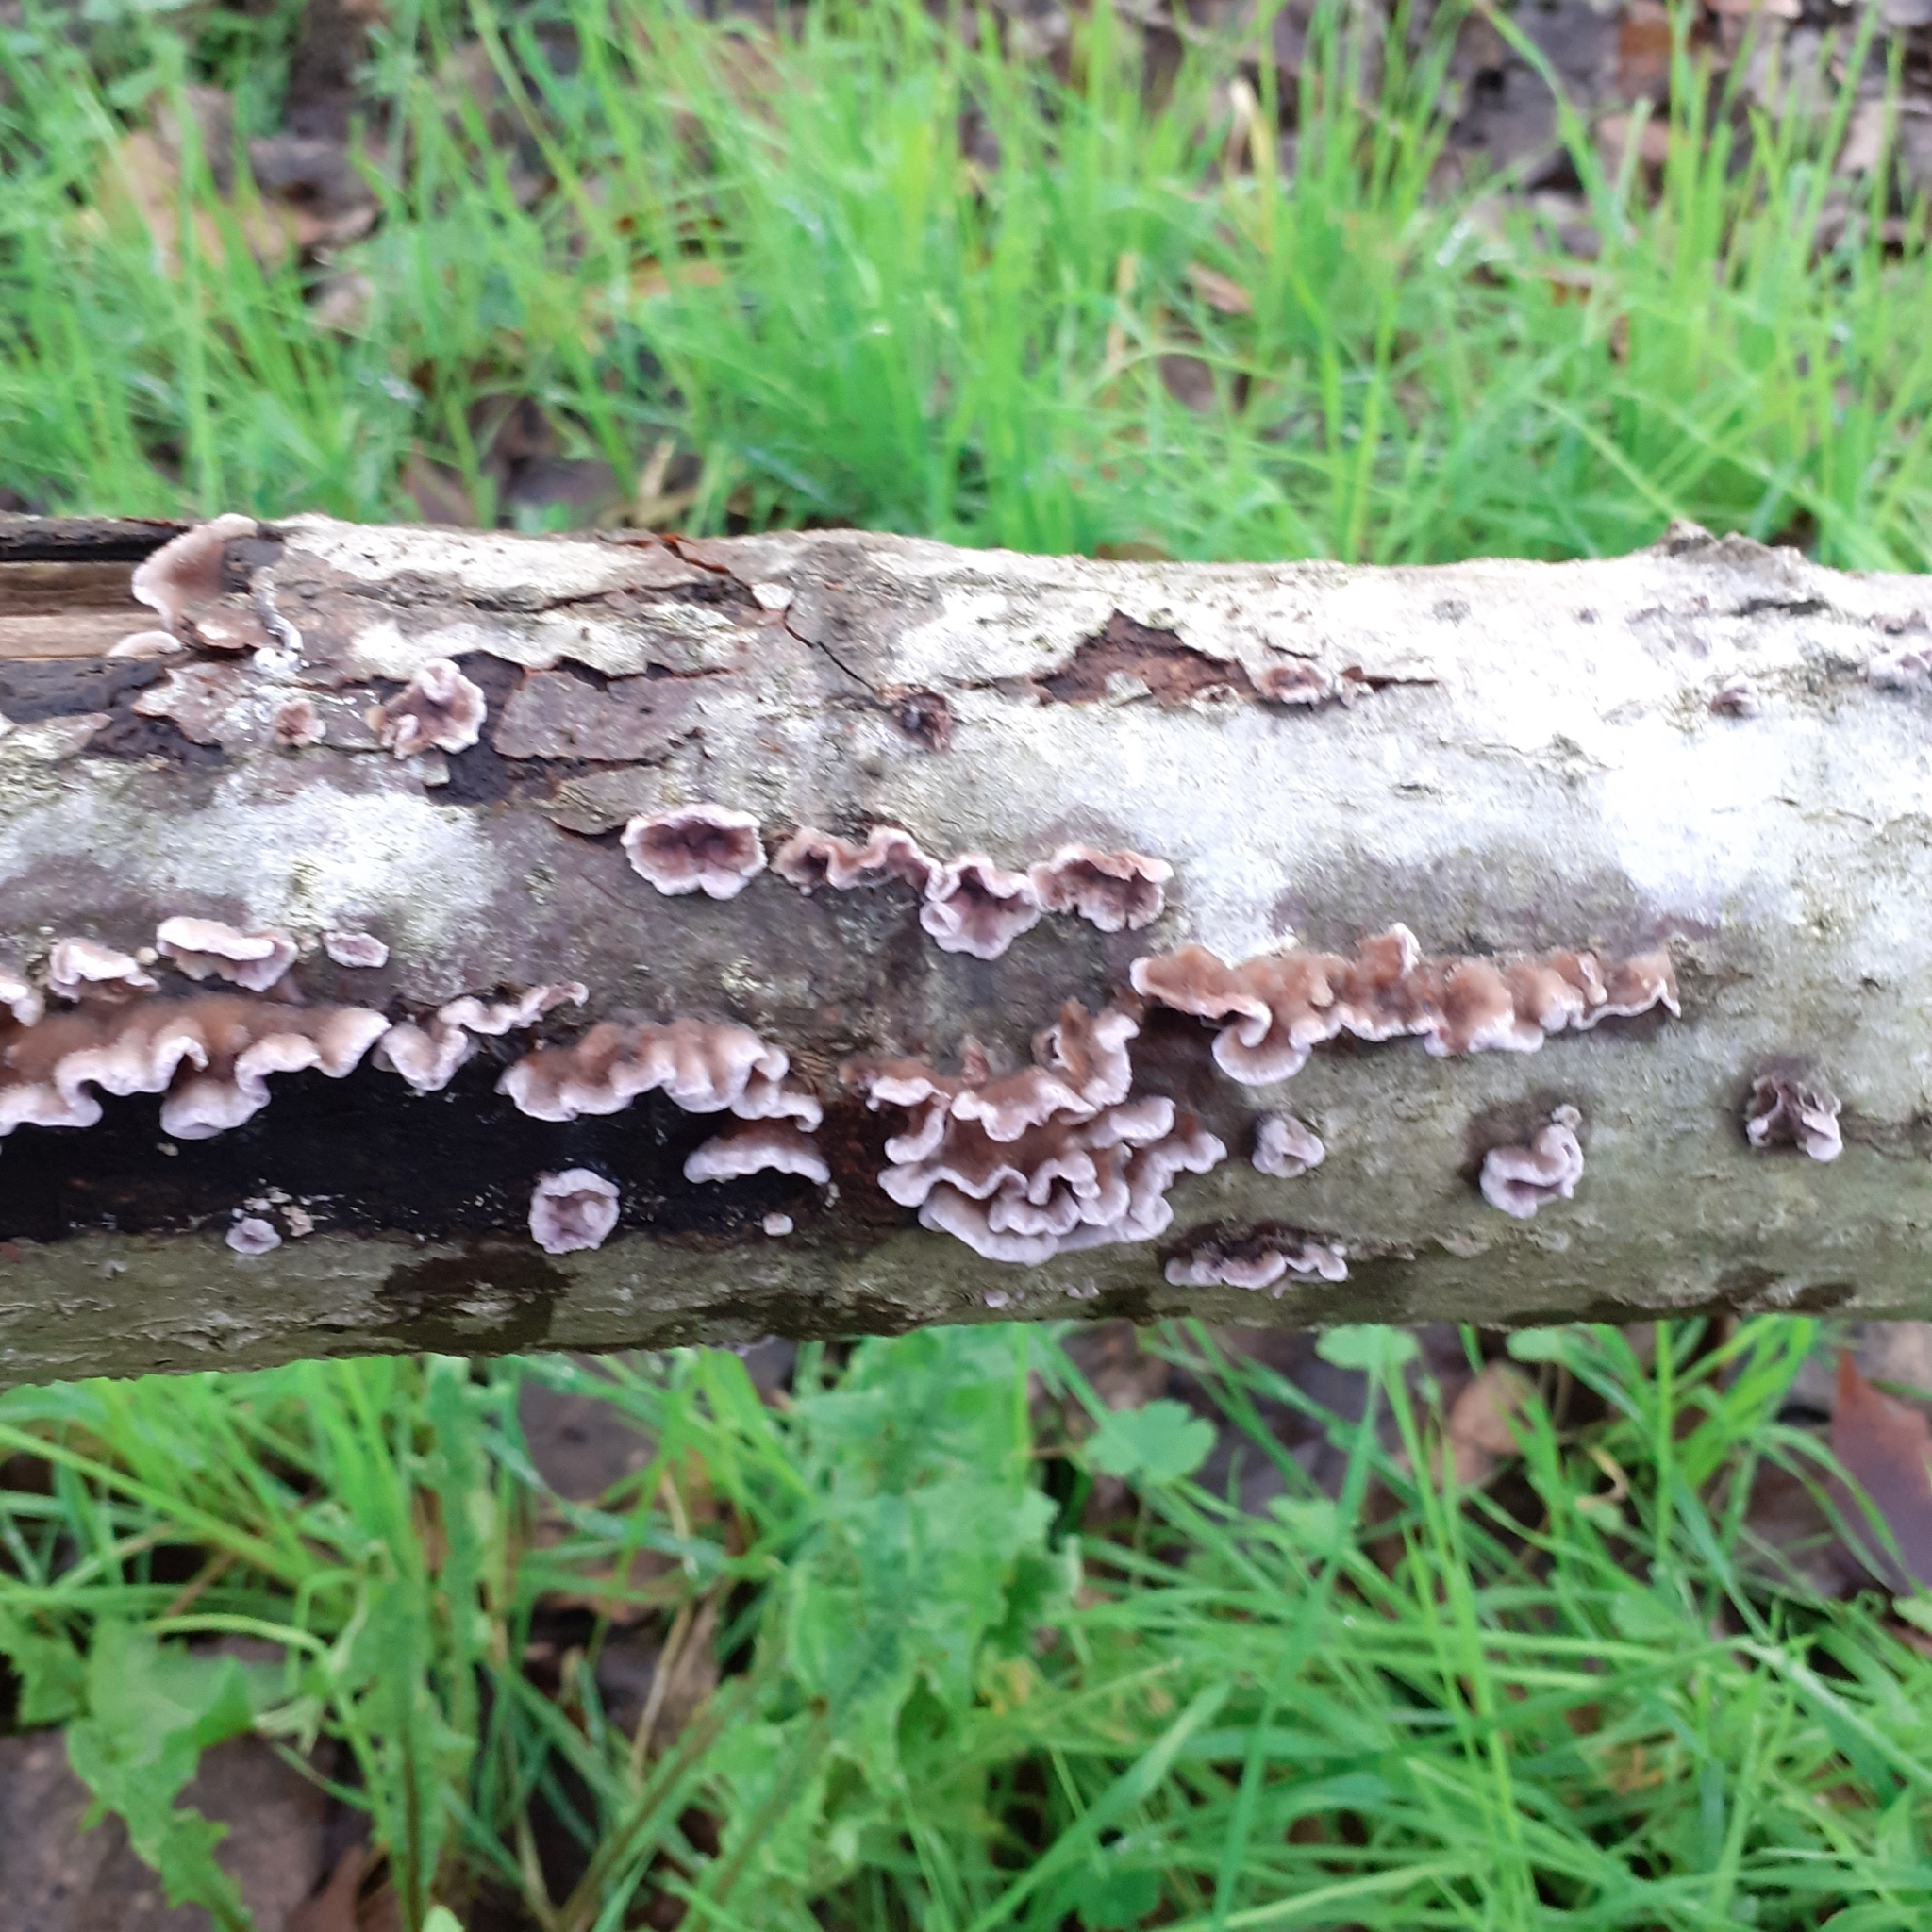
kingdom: Fungi
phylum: Basidiomycota
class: Agaricomycetes
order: Agaricales
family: Cyphellaceae
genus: Chondrostereum
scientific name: Chondrostereum purpureum
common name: Silver leaf disease
